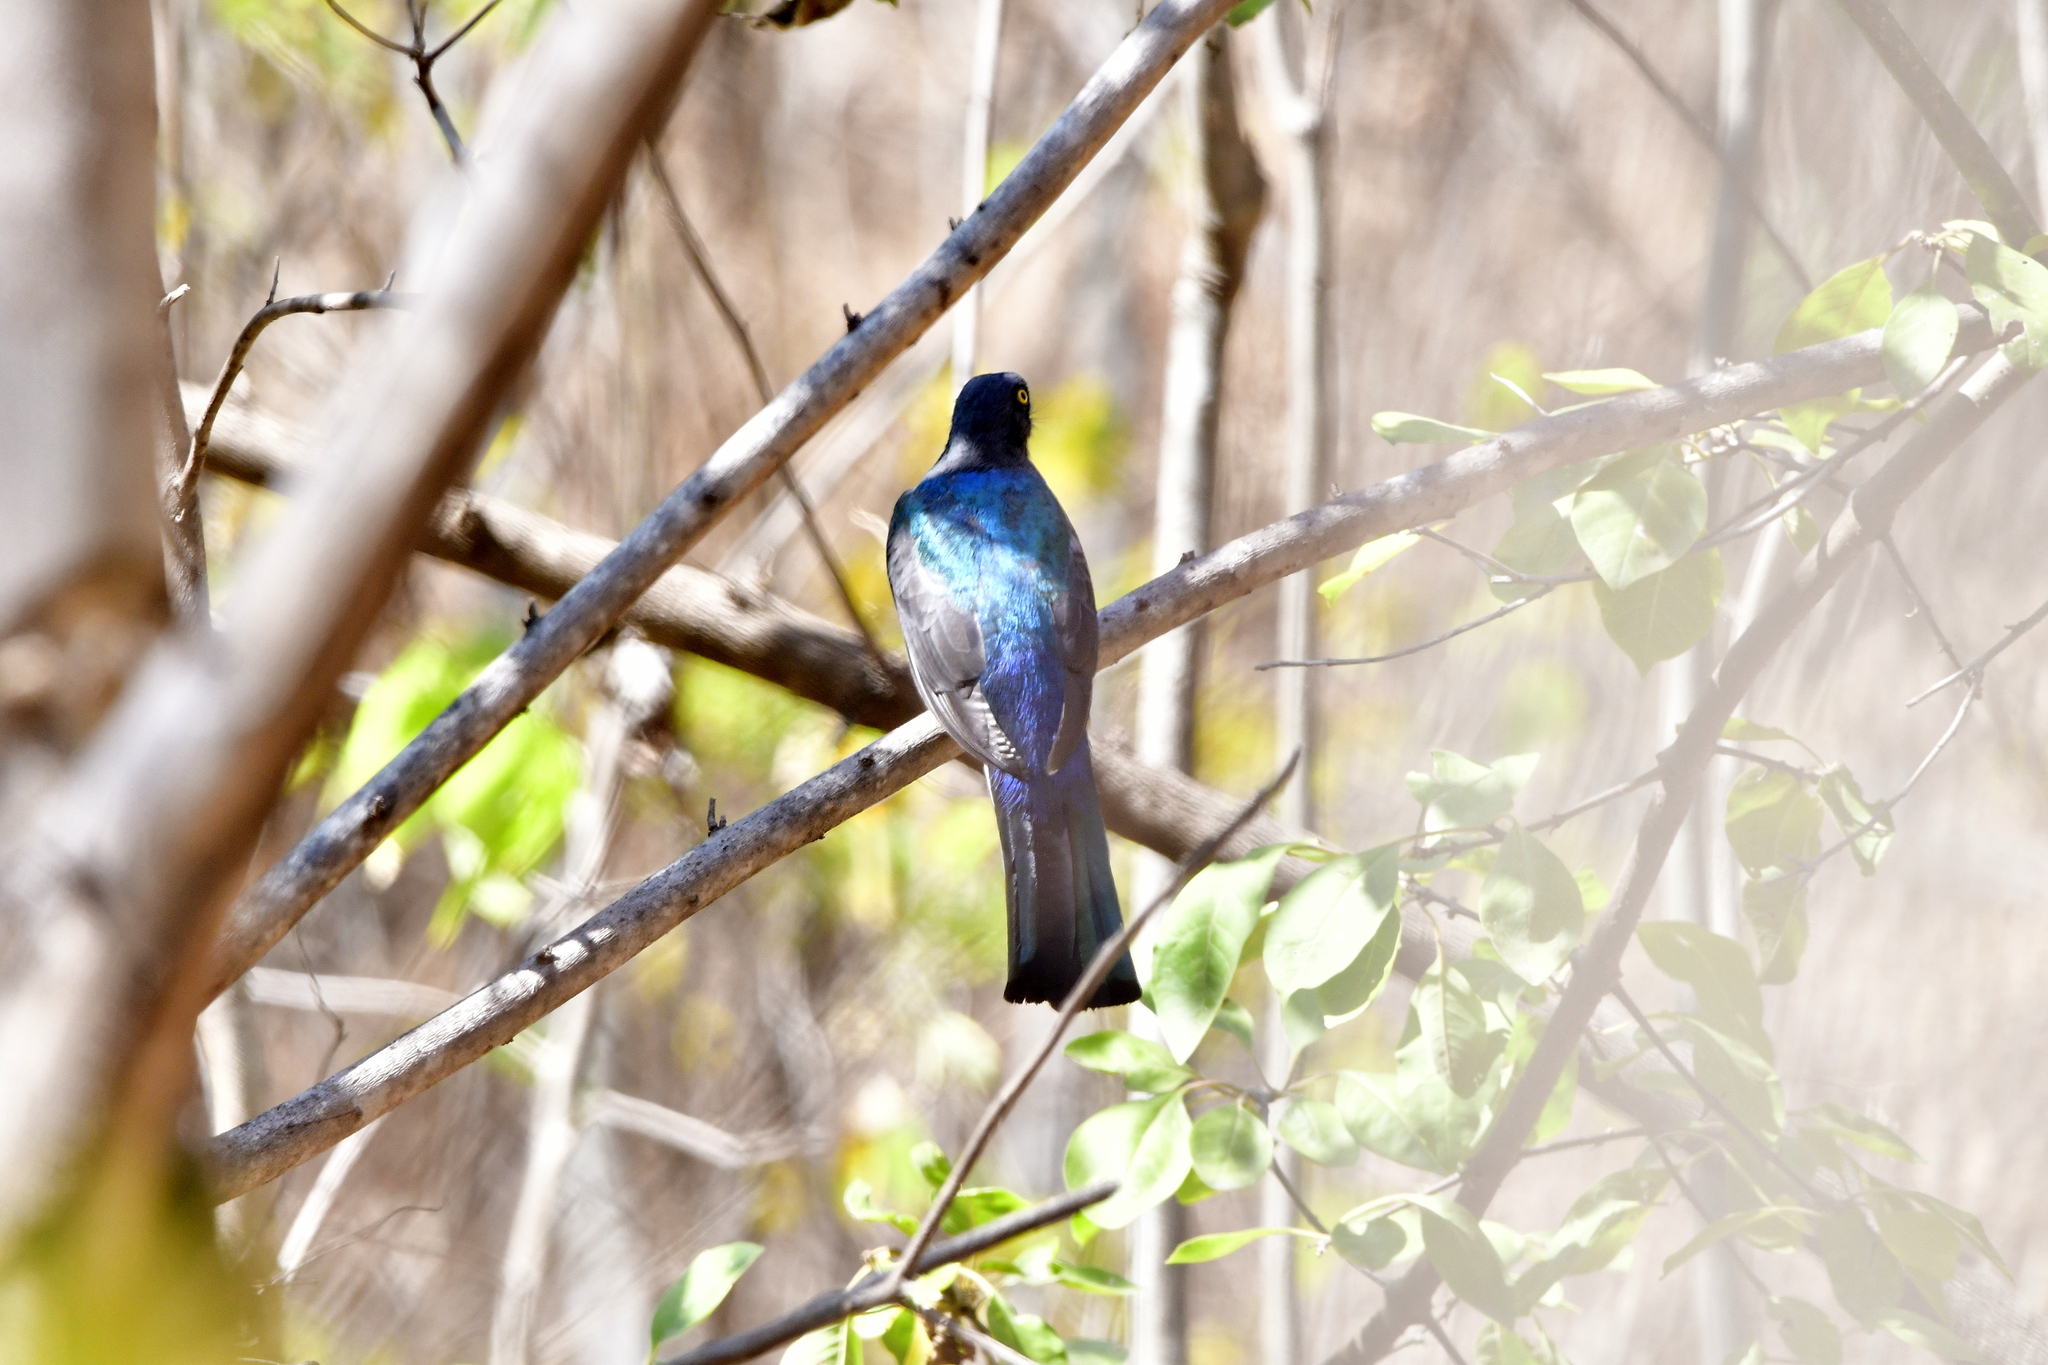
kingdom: Animalia
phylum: Chordata
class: Aves
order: Trogoniformes
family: Trogonidae
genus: Trogon
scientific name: Trogon citreolus
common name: Citreoline trogon
